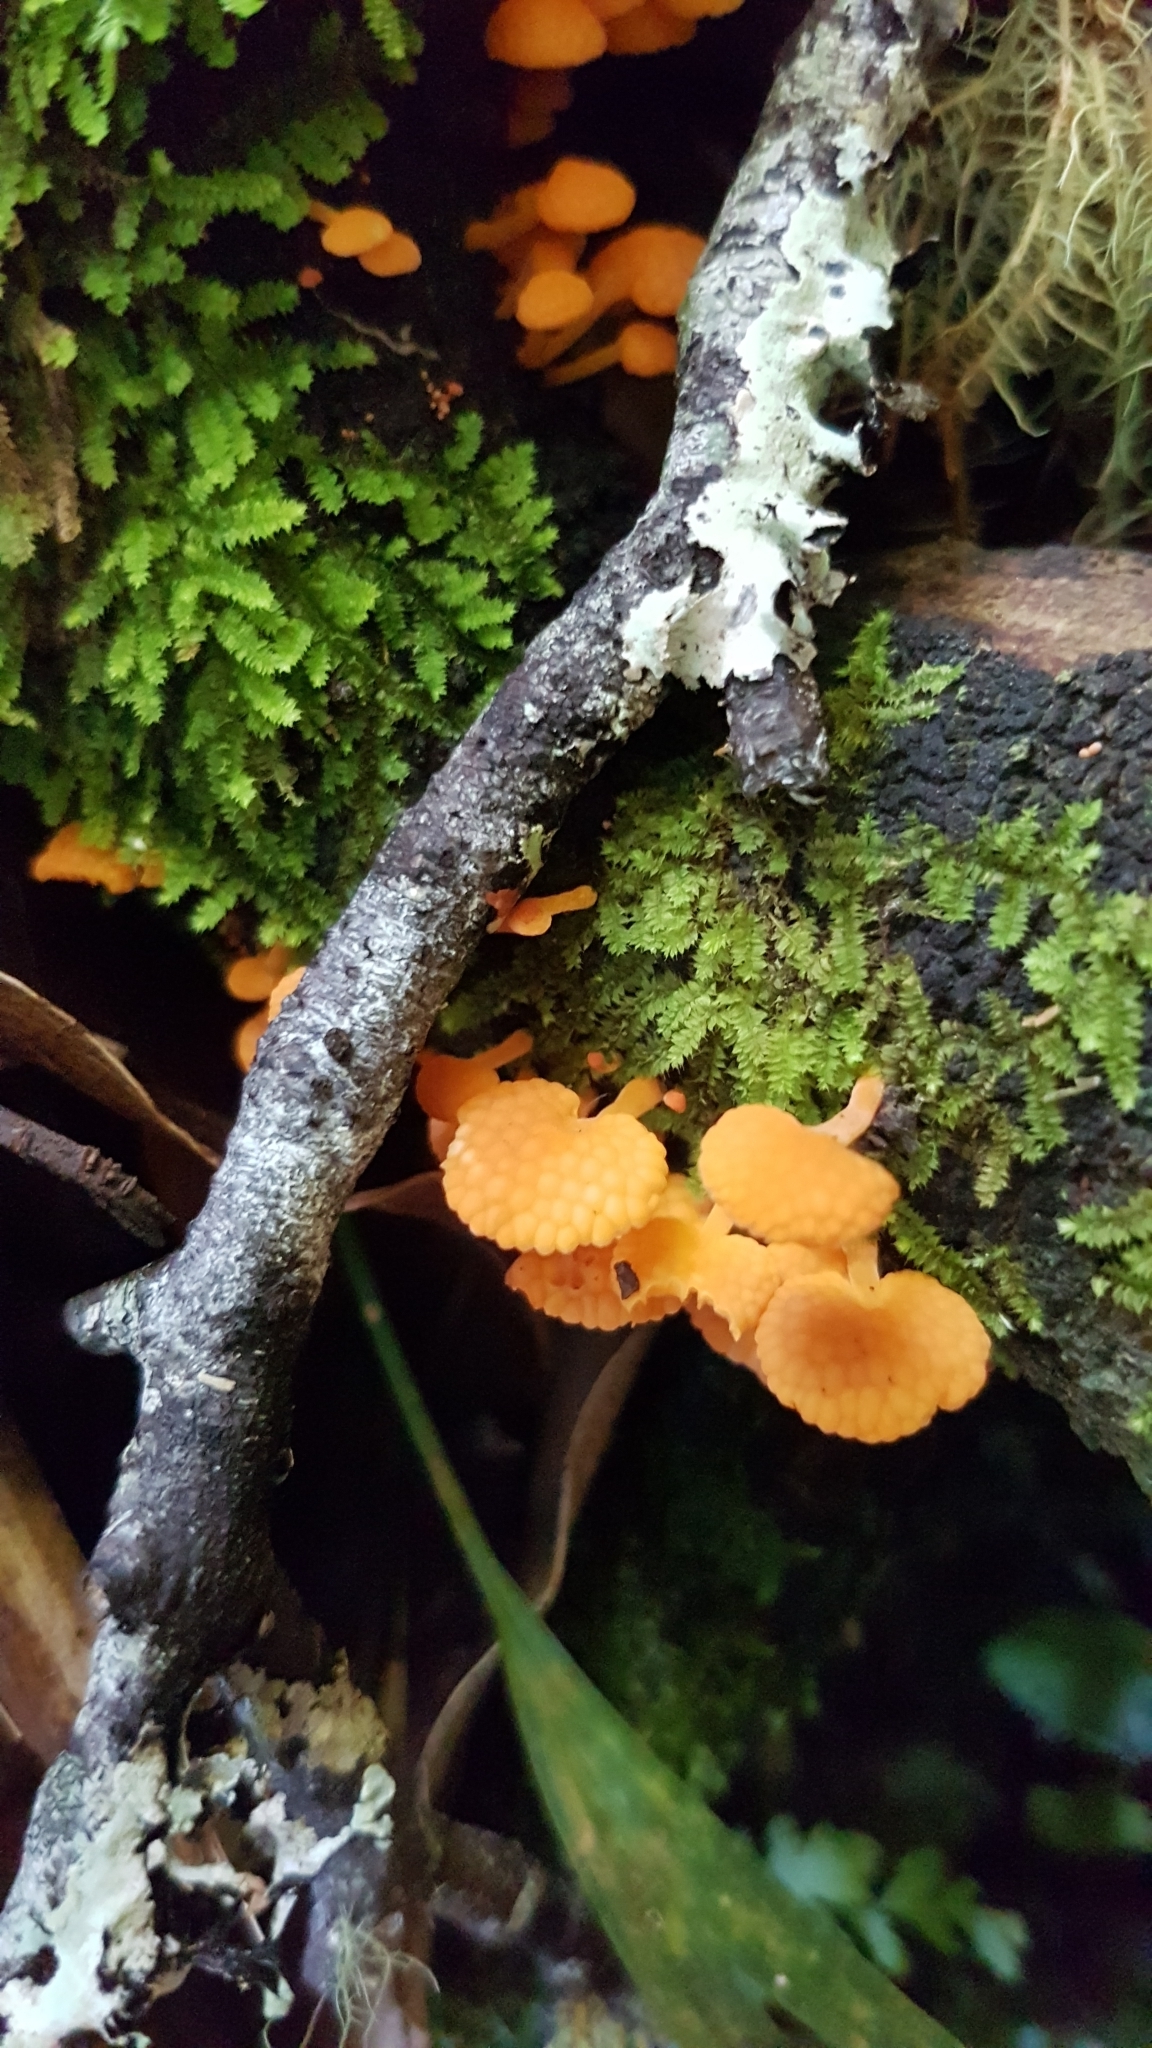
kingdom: Fungi
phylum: Basidiomycota
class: Agaricomycetes
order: Agaricales
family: Mycenaceae
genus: Favolaschia
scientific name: Favolaschia claudopus
